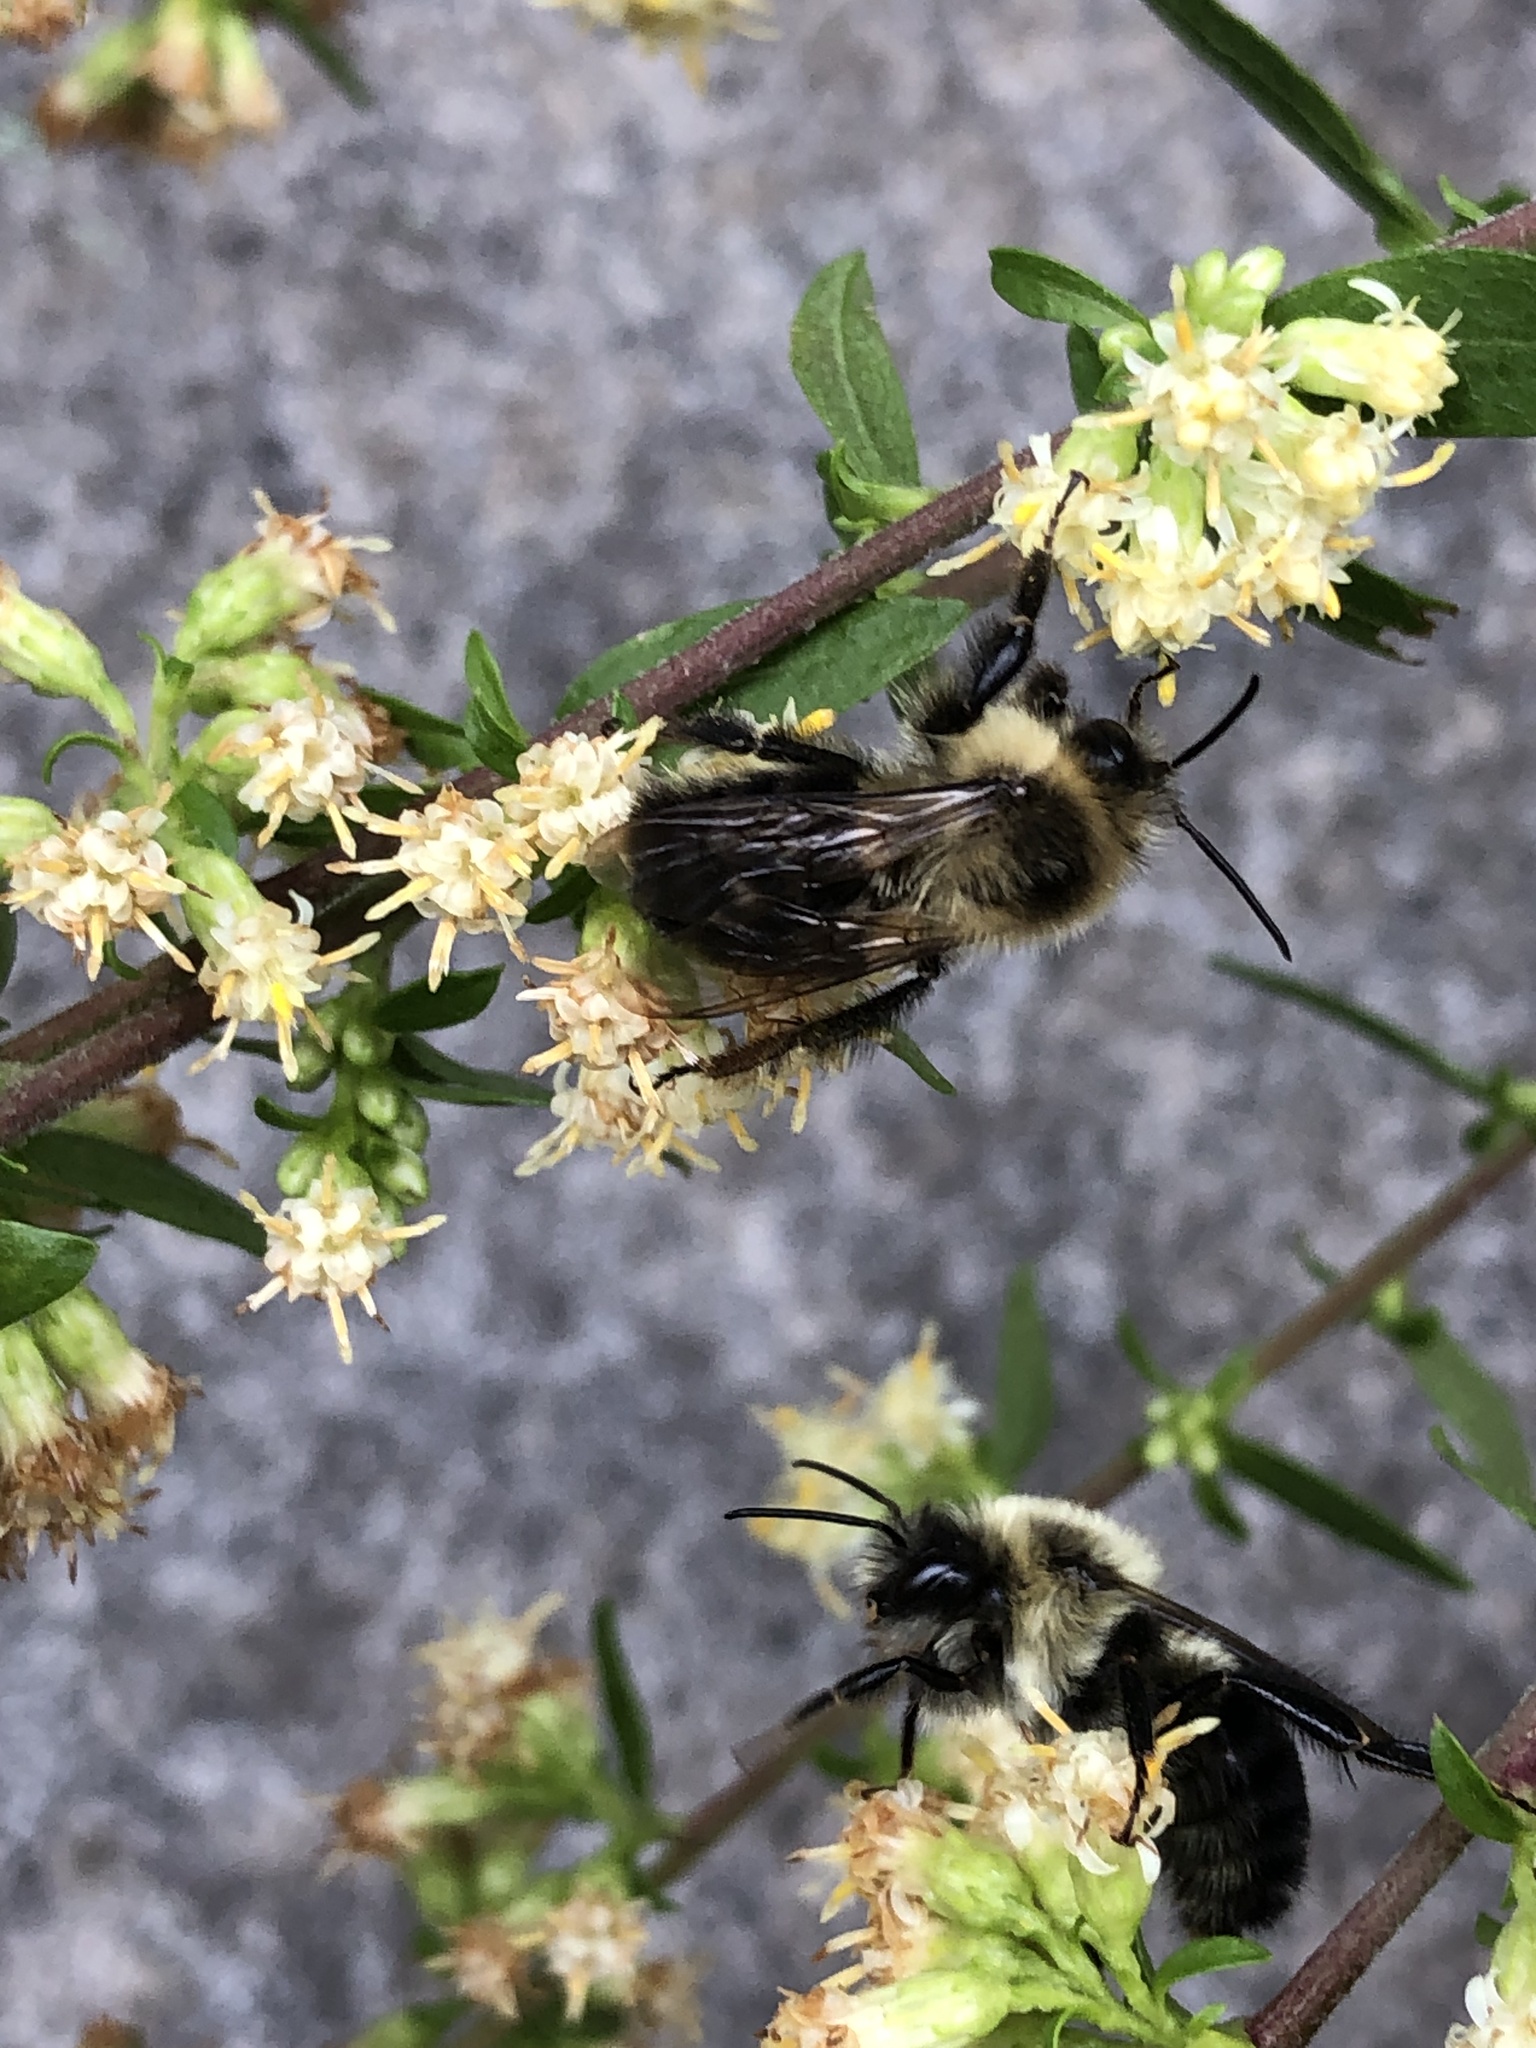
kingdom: Animalia
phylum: Arthropoda
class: Insecta
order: Hymenoptera
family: Apidae
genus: Bombus
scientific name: Bombus impatiens
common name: Common eastern bumble bee
